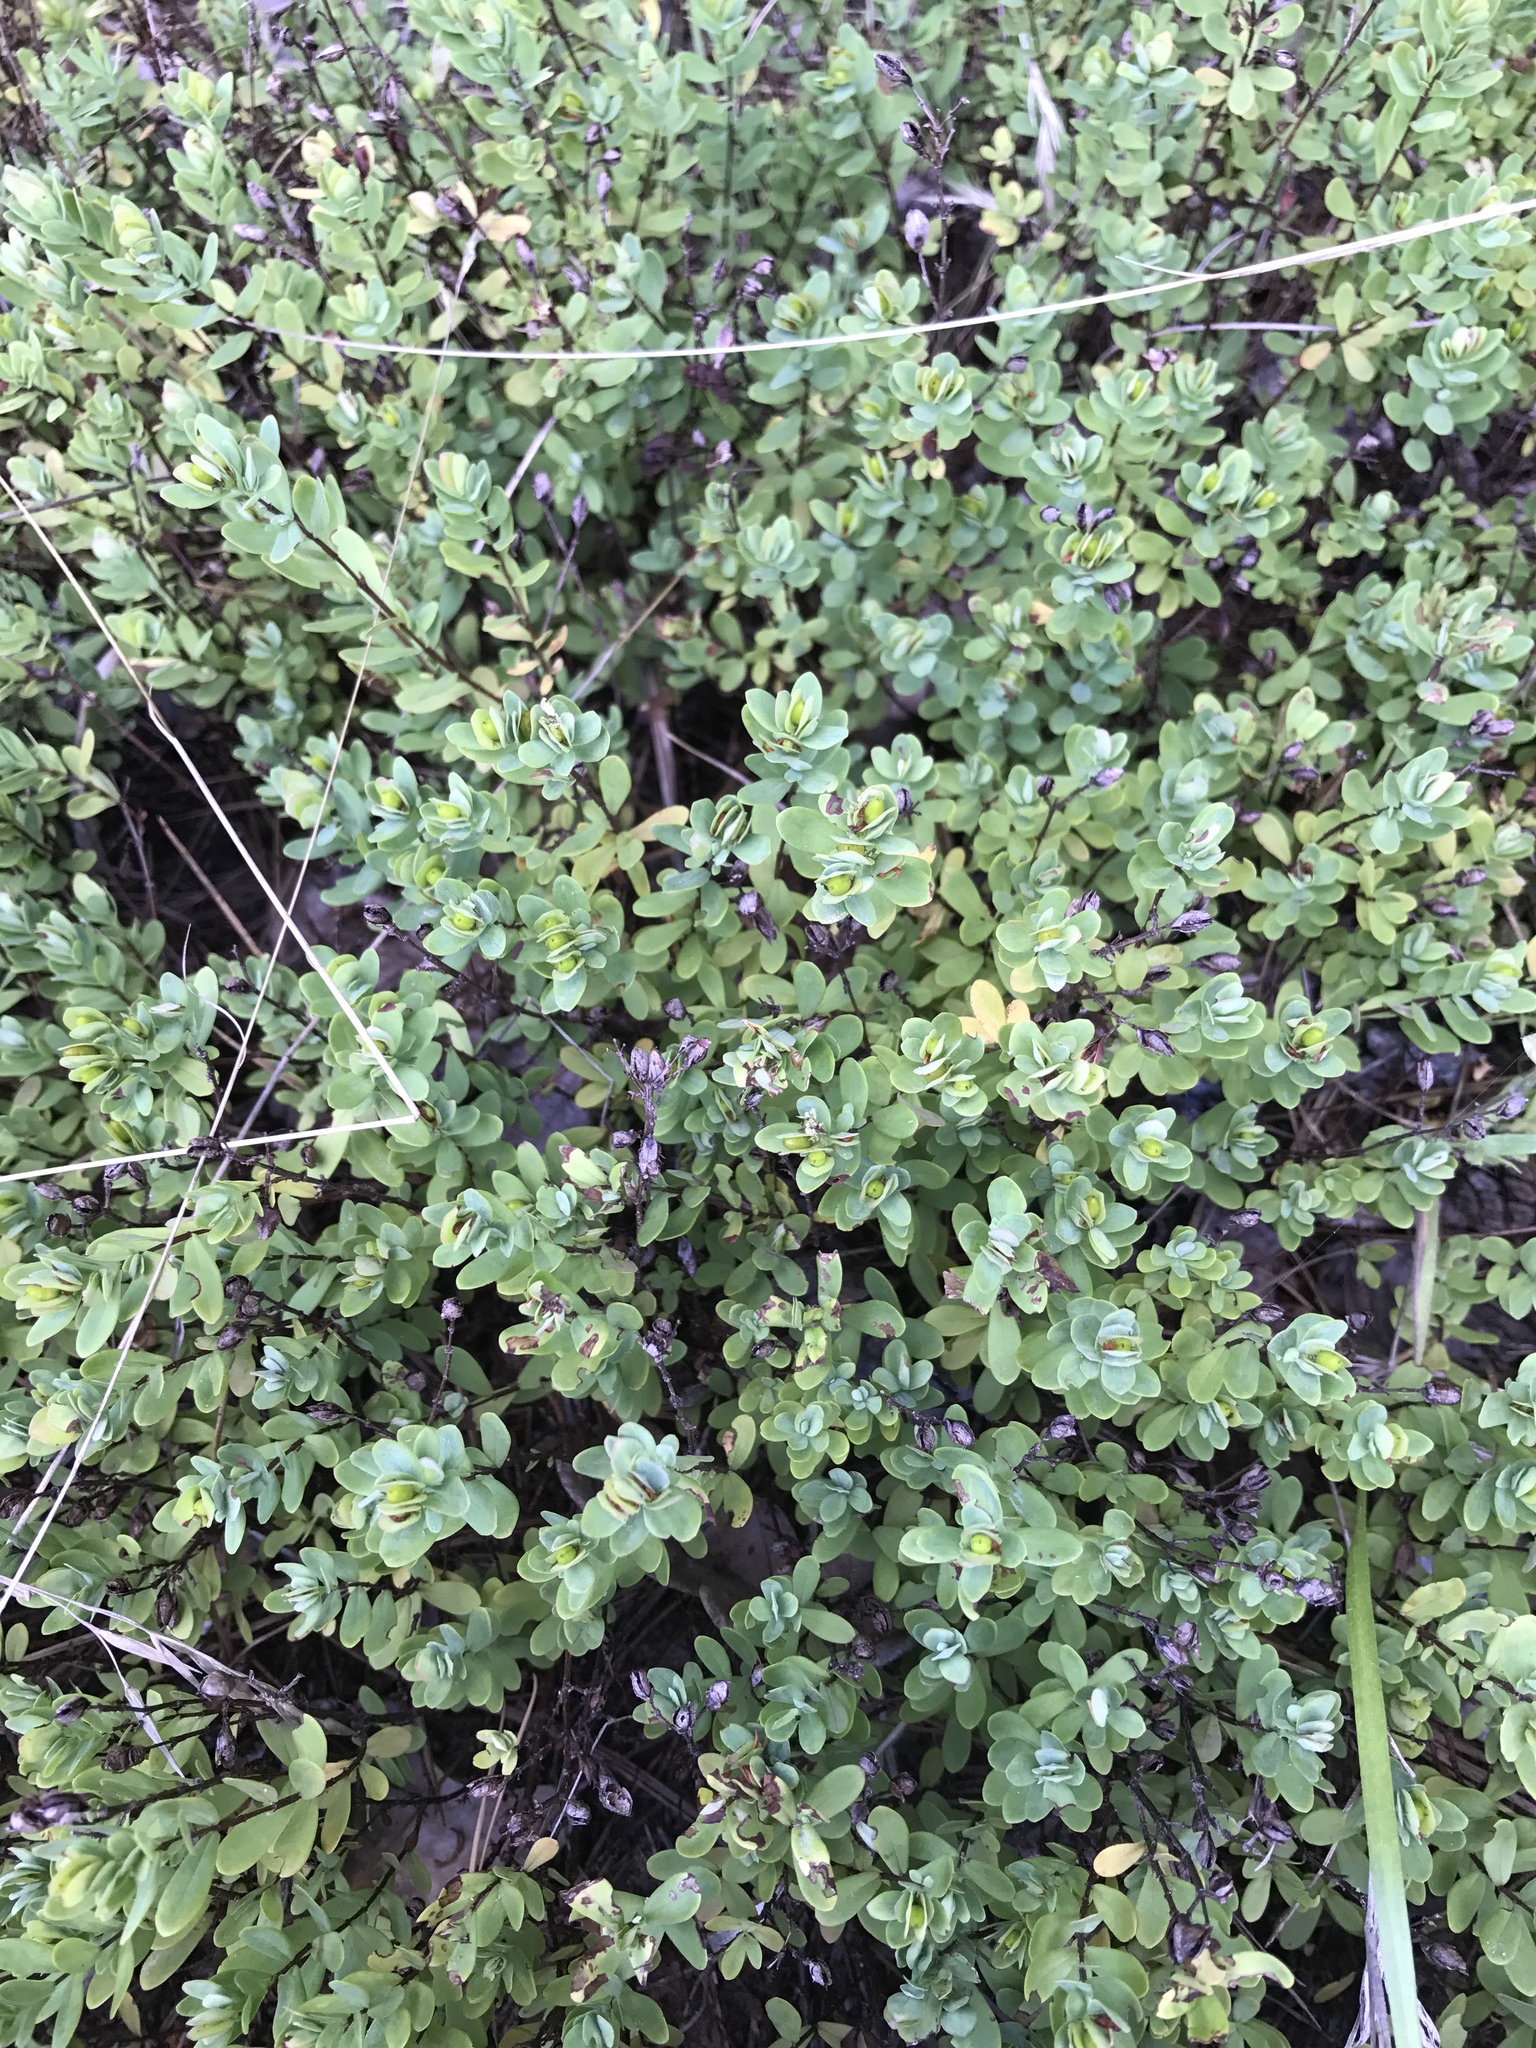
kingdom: Plantae
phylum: Tracheophyta
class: Magnoliopsida
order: Malpighiales
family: Hypericaceae
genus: Hypericum
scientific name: Hypericum hypericoides
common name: St. andrew's cross
